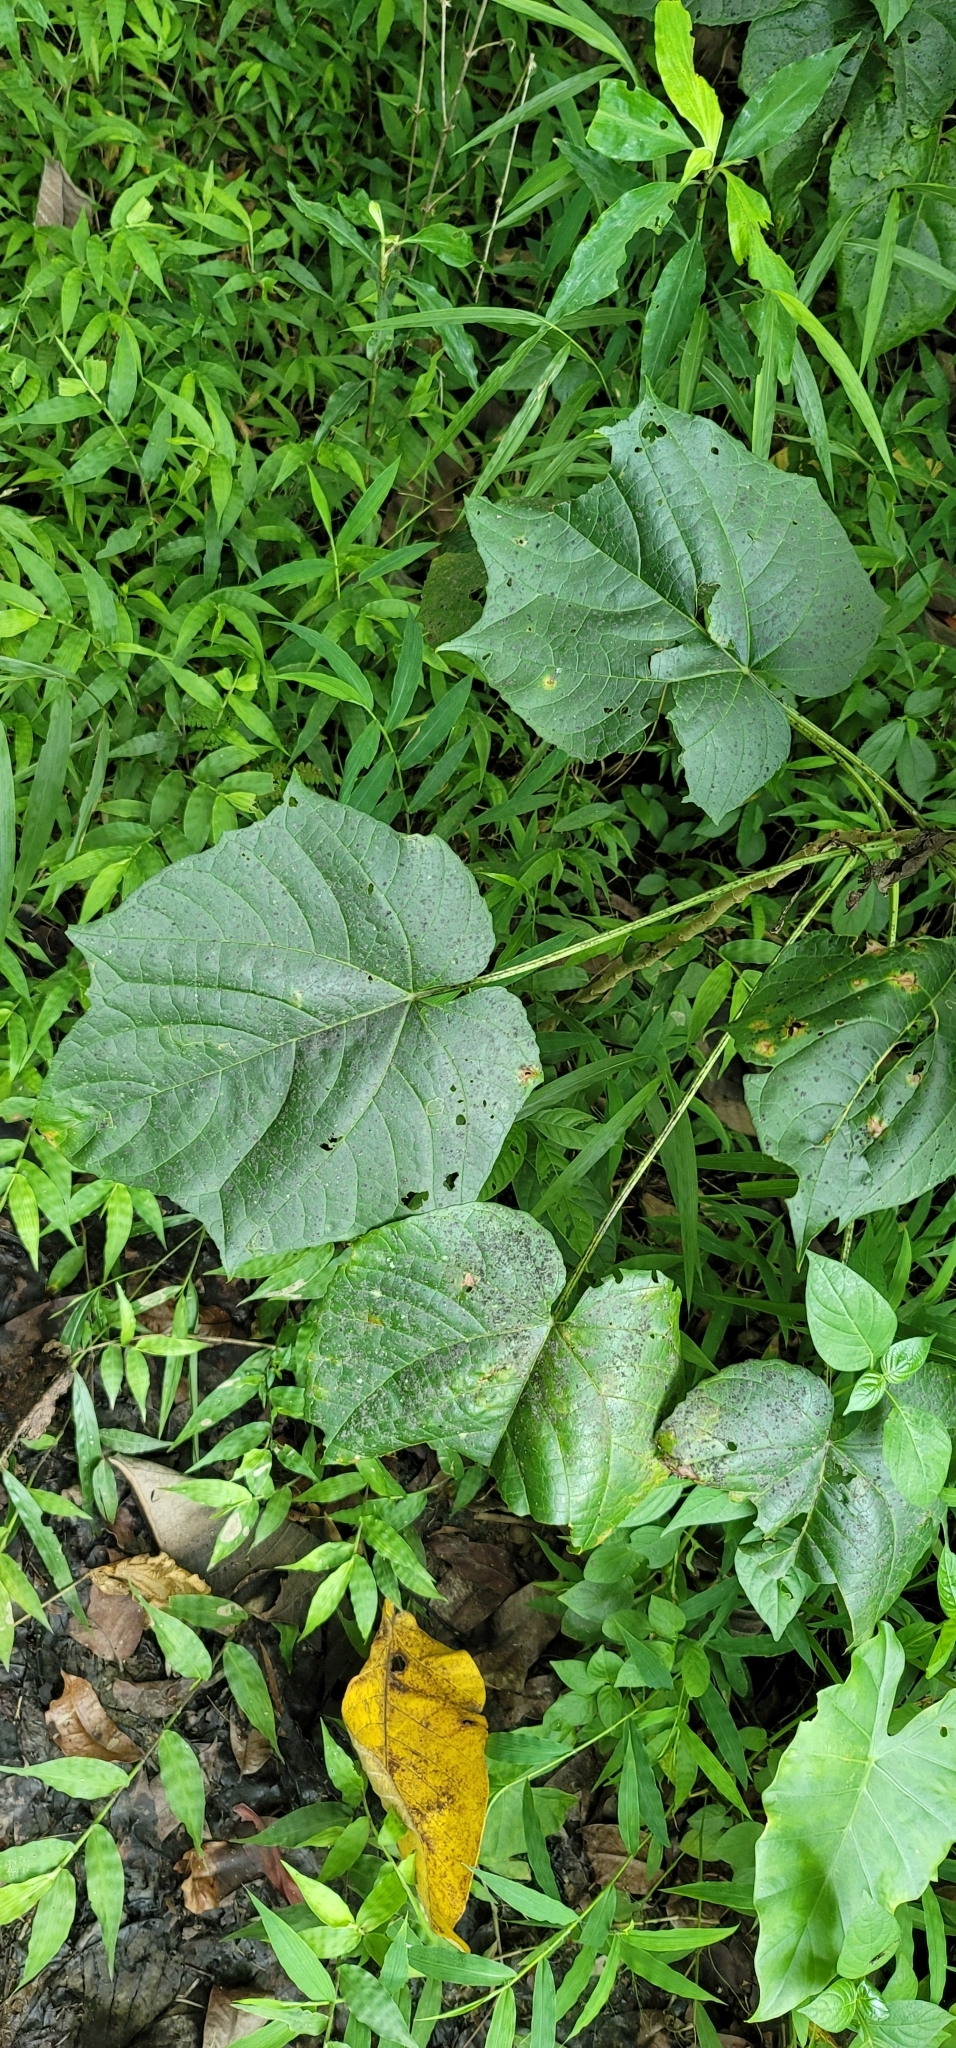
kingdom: Plantae
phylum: Tracheophyta
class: Magnoliopsida
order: Lamiales
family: Lamiaceae
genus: Clerodendrum
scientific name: Clerodendrum japonicum
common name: Japanese glorybower
